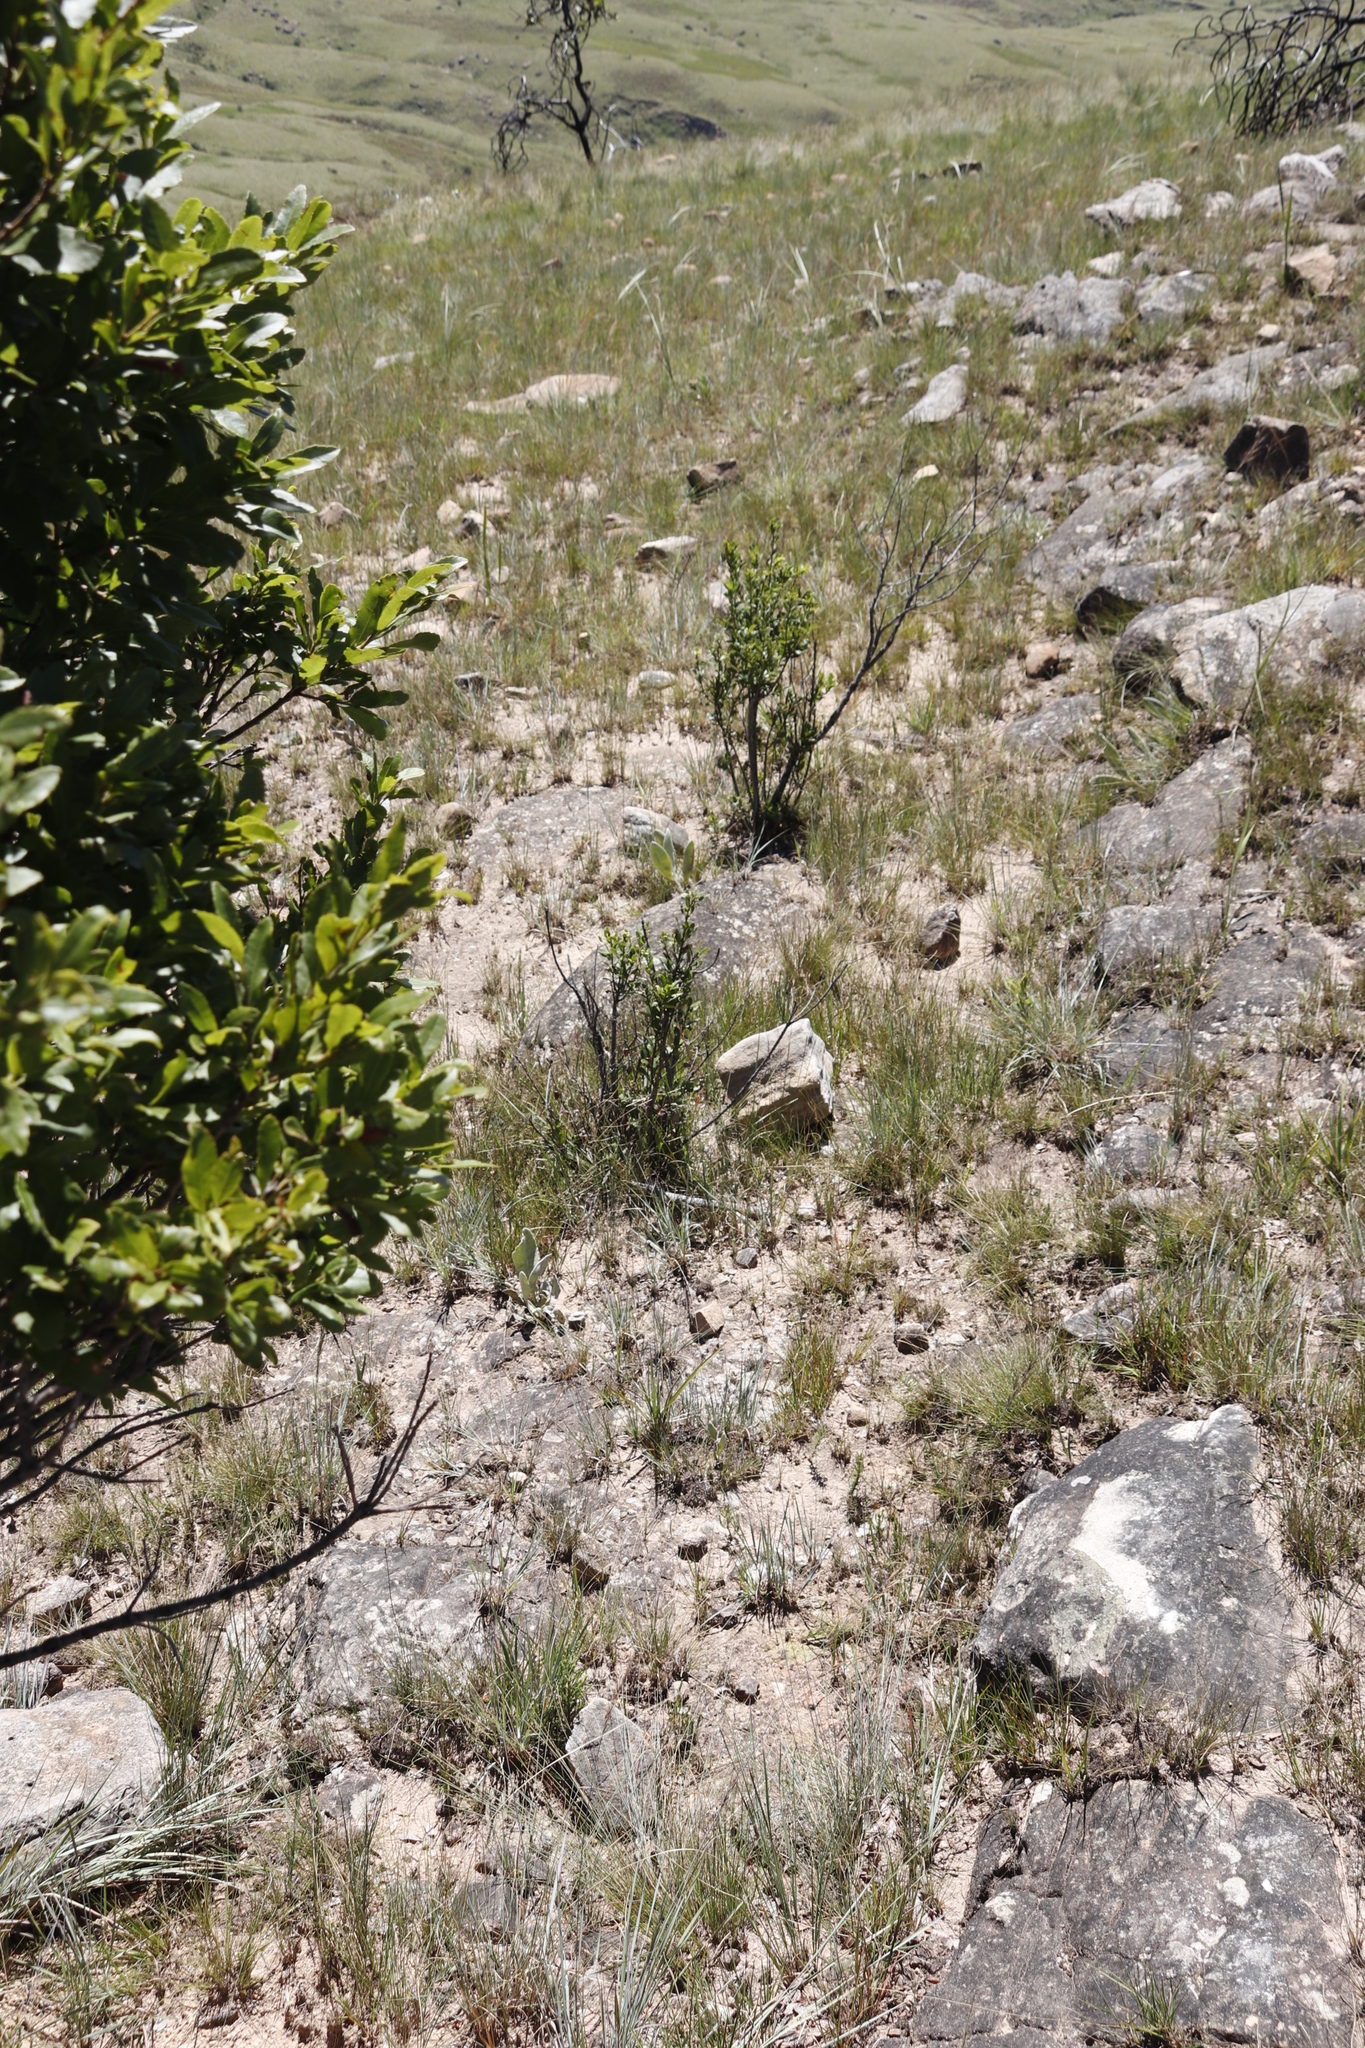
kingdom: Plantae
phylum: Tracheophyta
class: Magnoliopsida
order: Fagales
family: Myricaceae
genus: Morella
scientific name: Morella serrata
